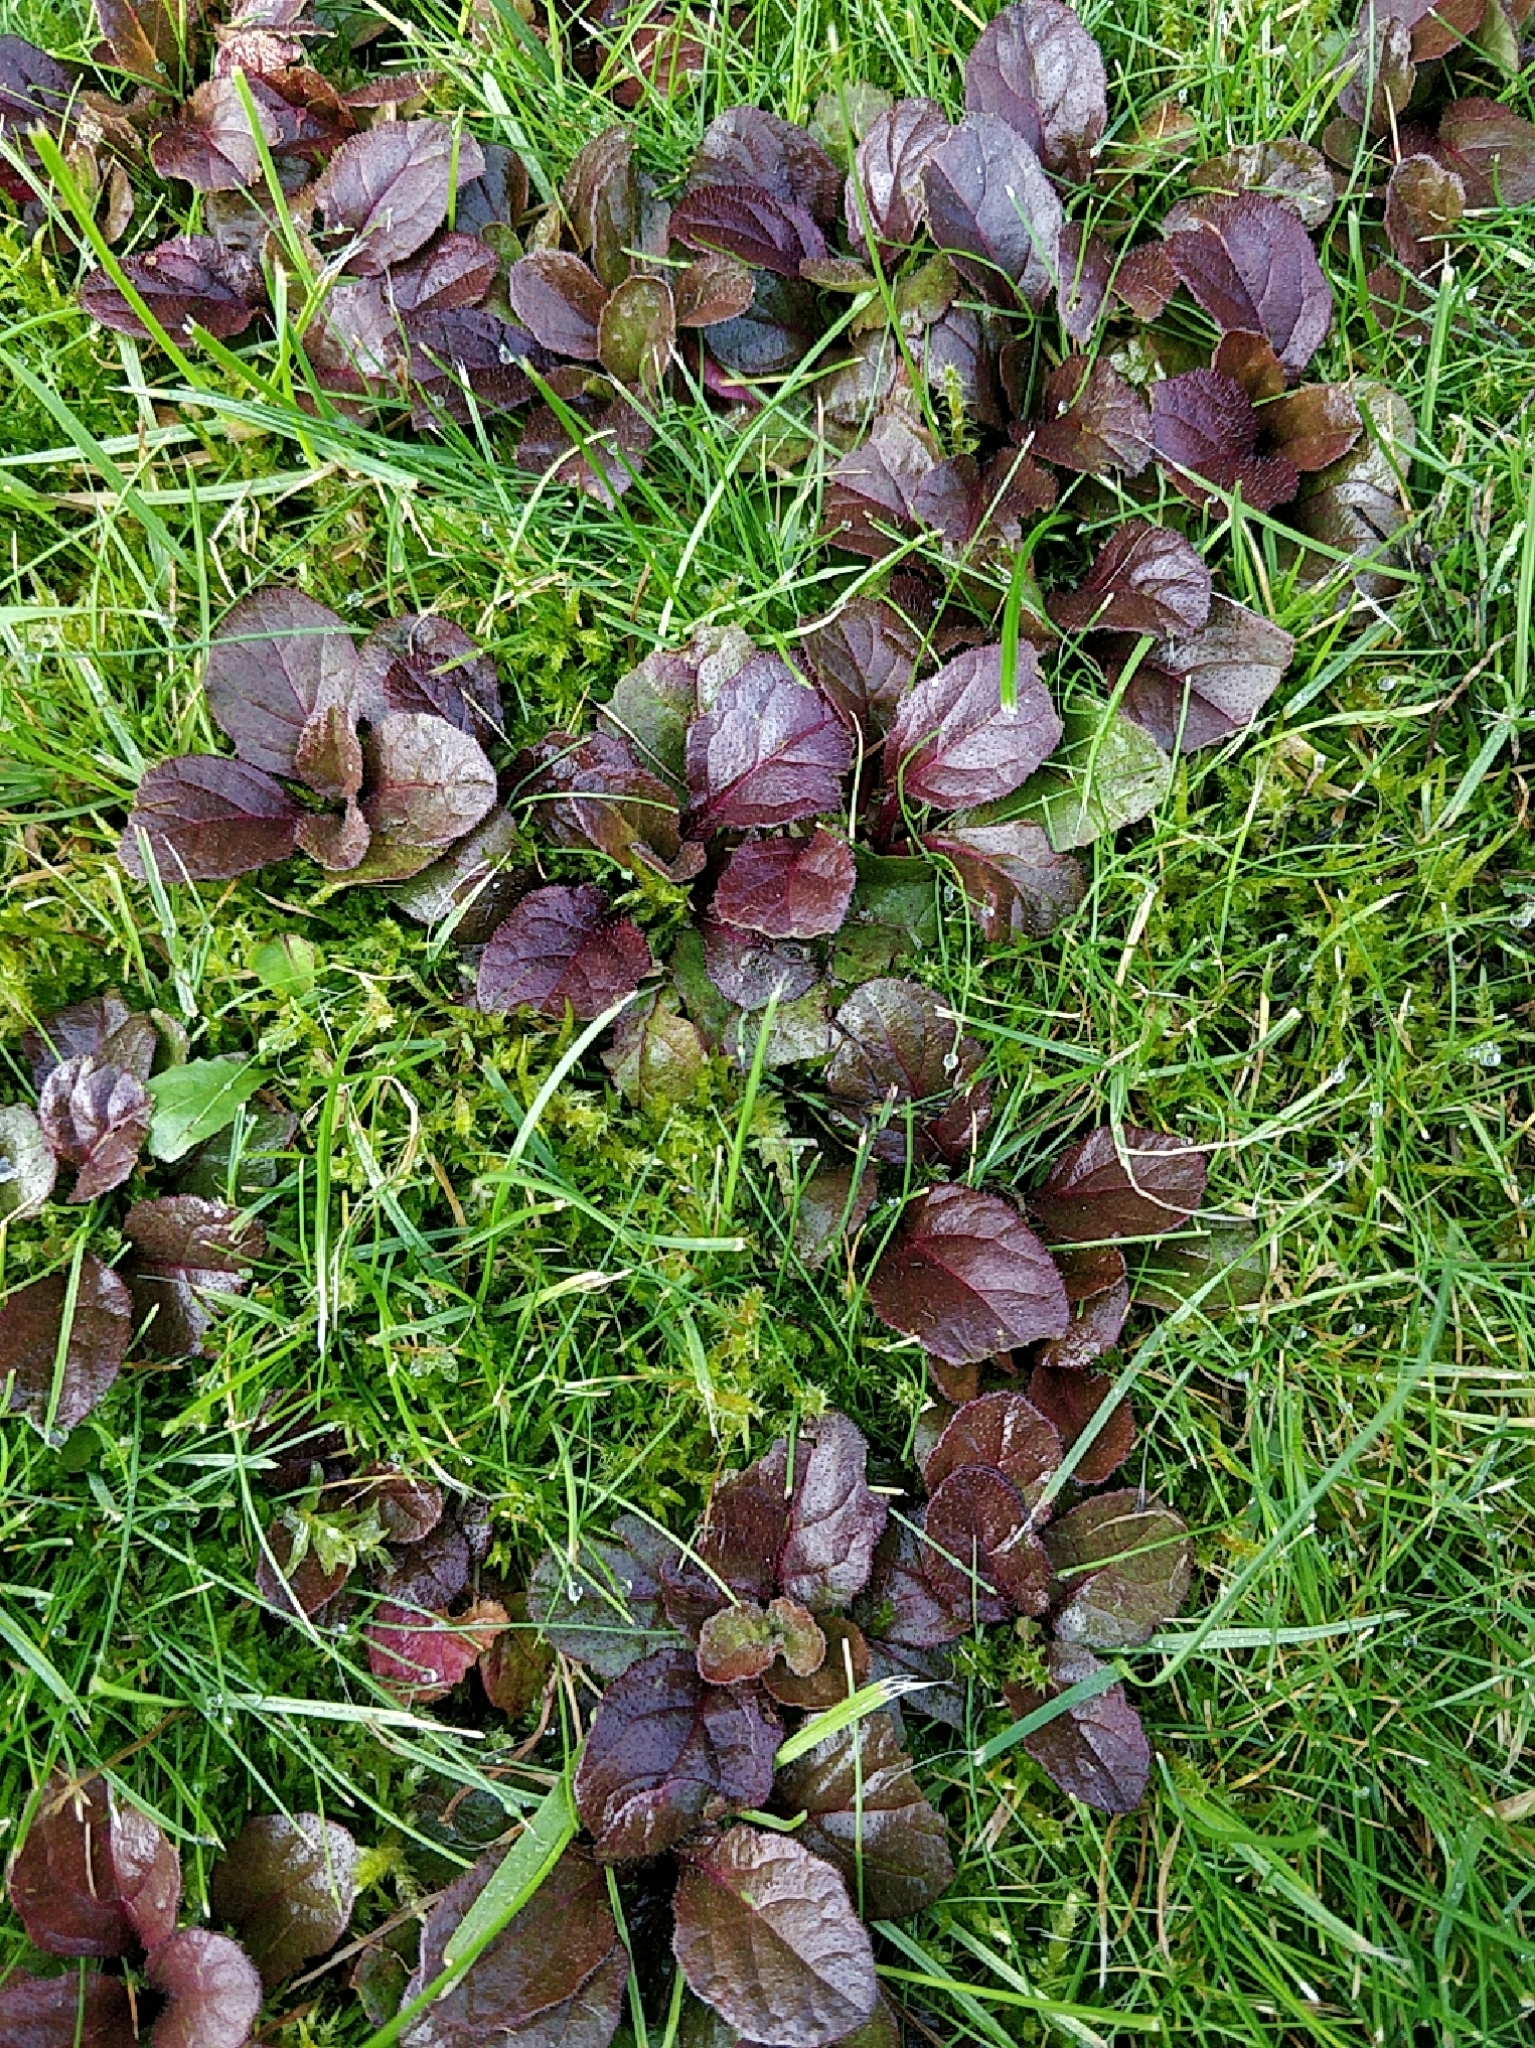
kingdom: Plantae
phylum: Tracheophyta
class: Magnoliopsida
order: Lamiales
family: Lamiaceae
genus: Ajuga
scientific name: Ajuga reptans
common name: Bugle
